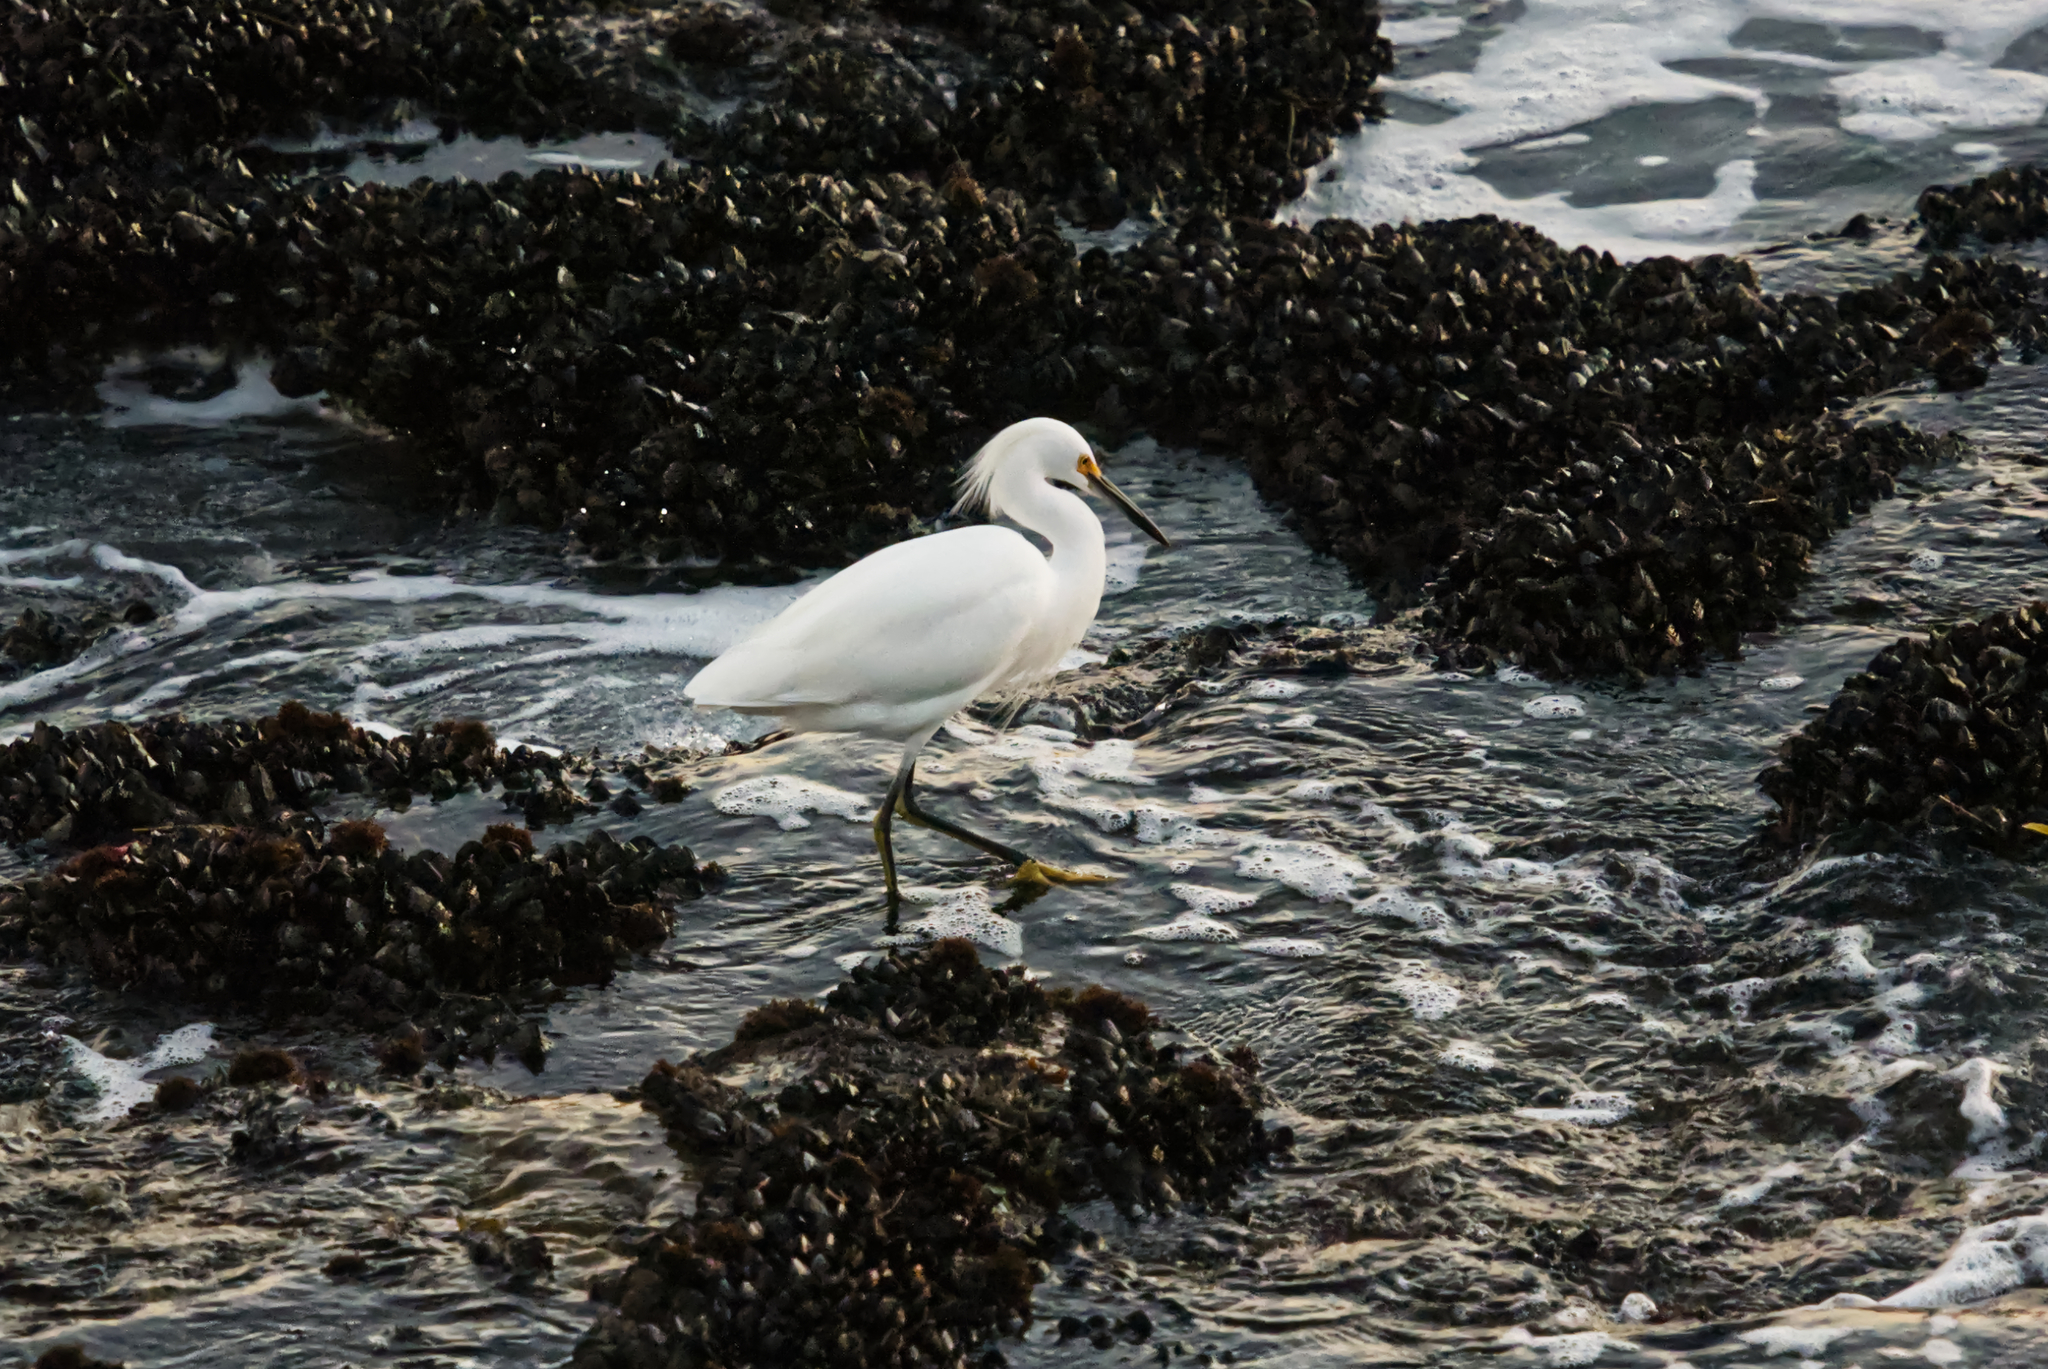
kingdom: Animalia
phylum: Chordata
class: Aves
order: Pelecaniformes
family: Ardeidae
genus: Egretta
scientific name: Egretta thula
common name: Snowy egret
